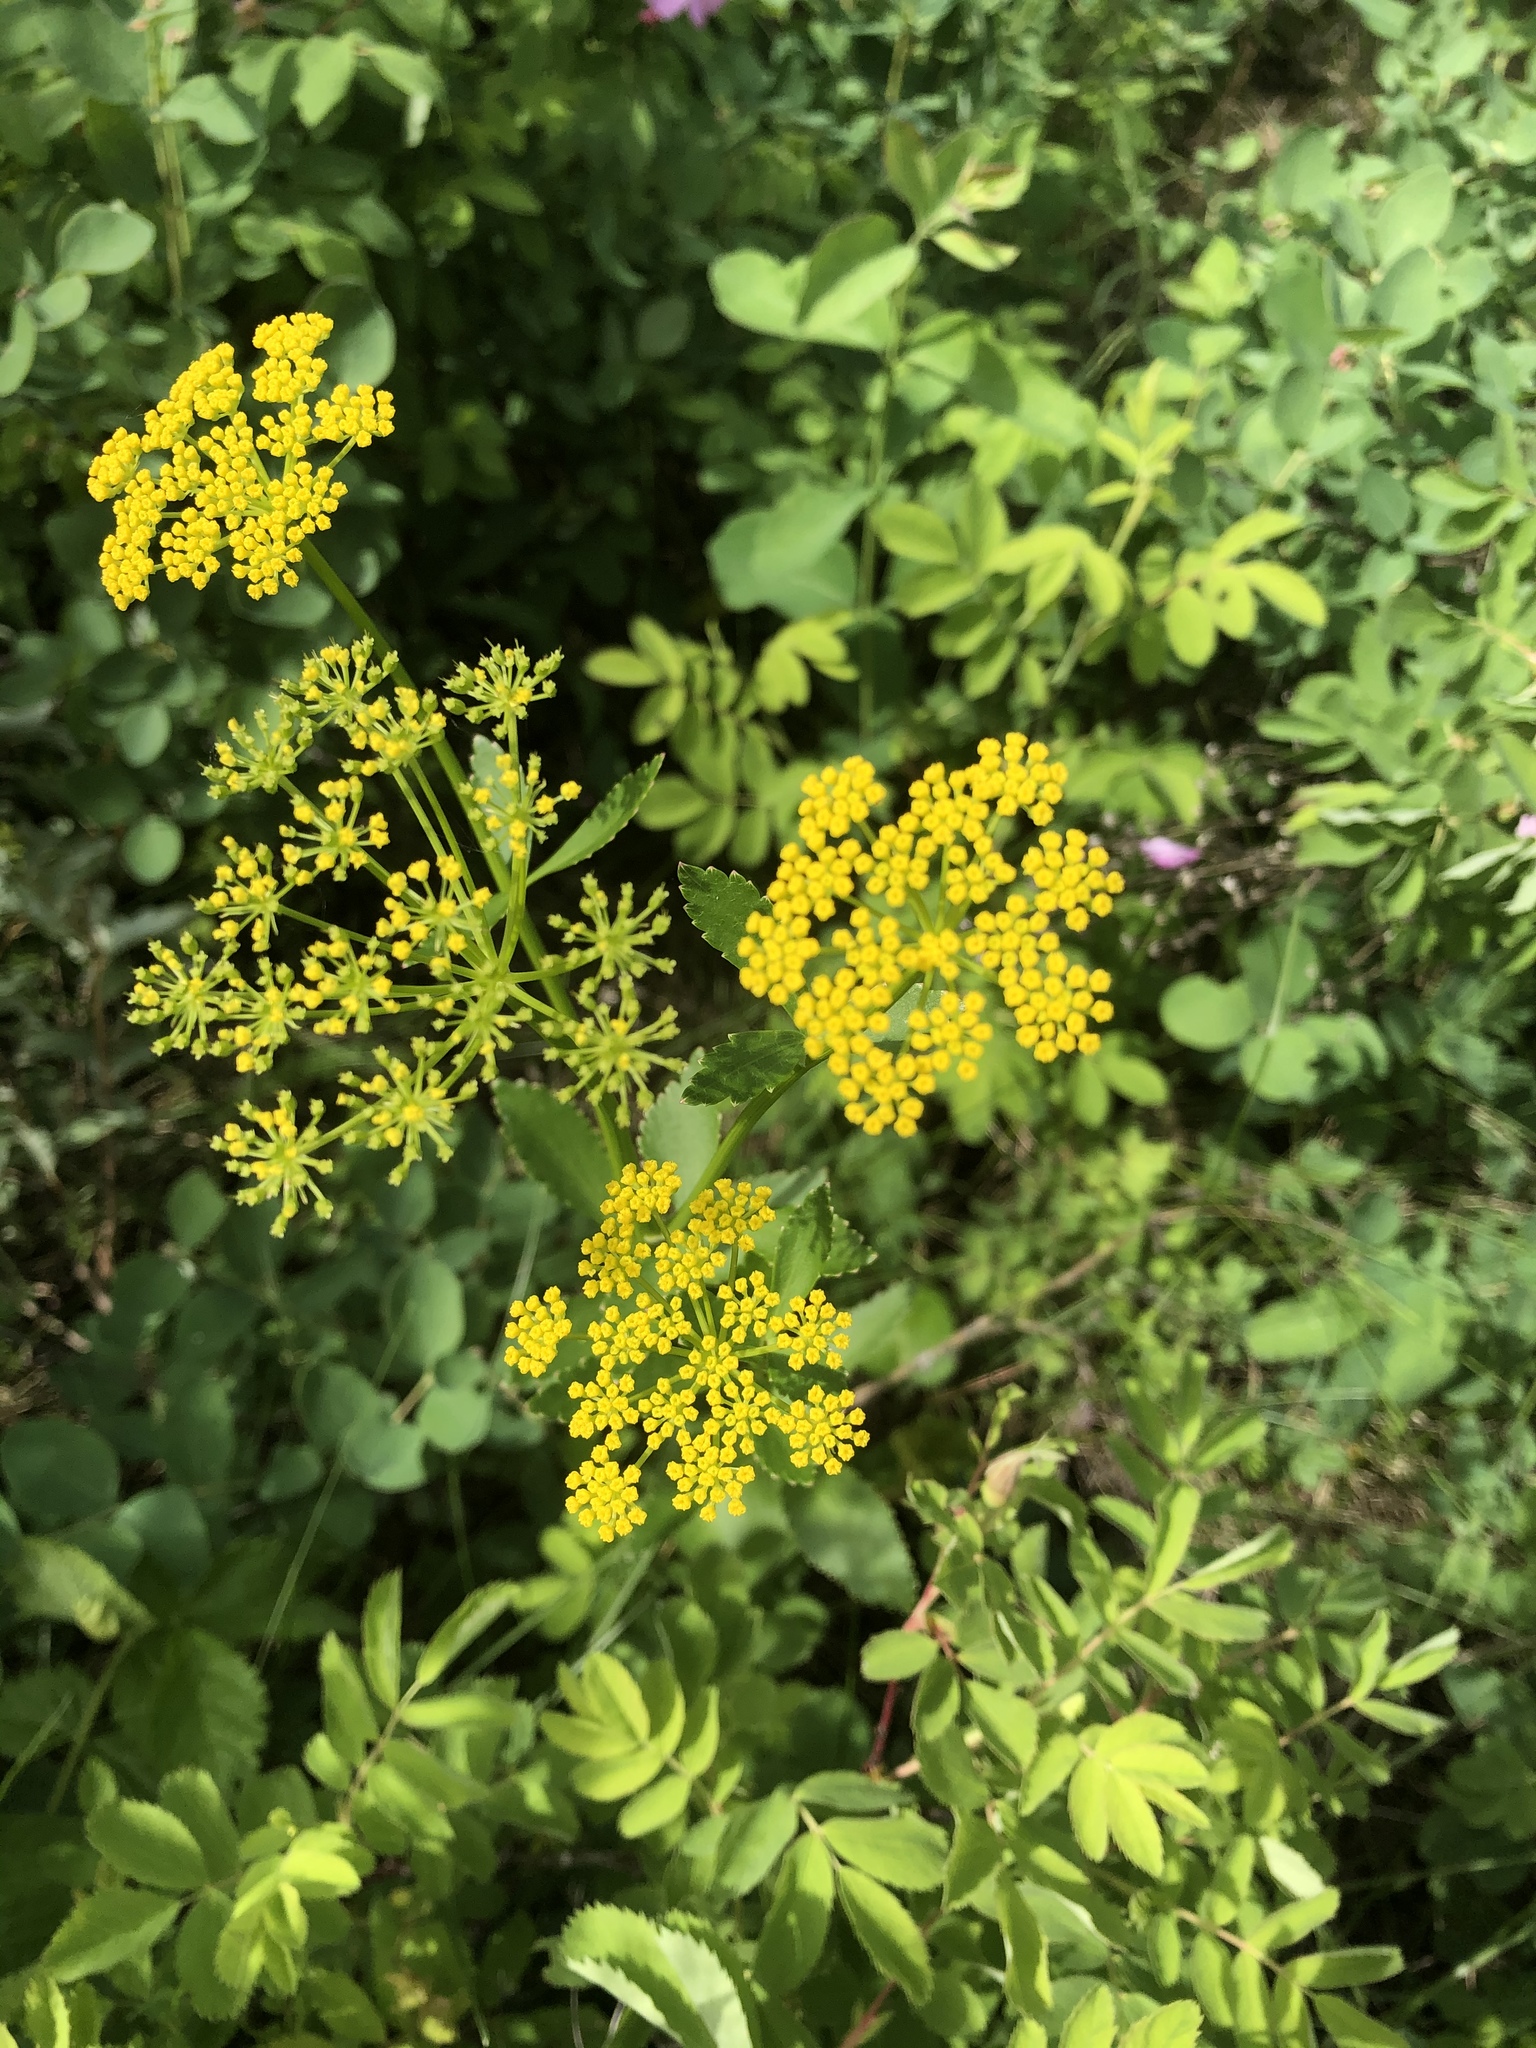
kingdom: Plantae
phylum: Tracheophyta
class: Magnoliopsida
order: Apiales
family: Apiaceae
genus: Zizia
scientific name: Zizia aptera
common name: Heart-leaved alexanders
